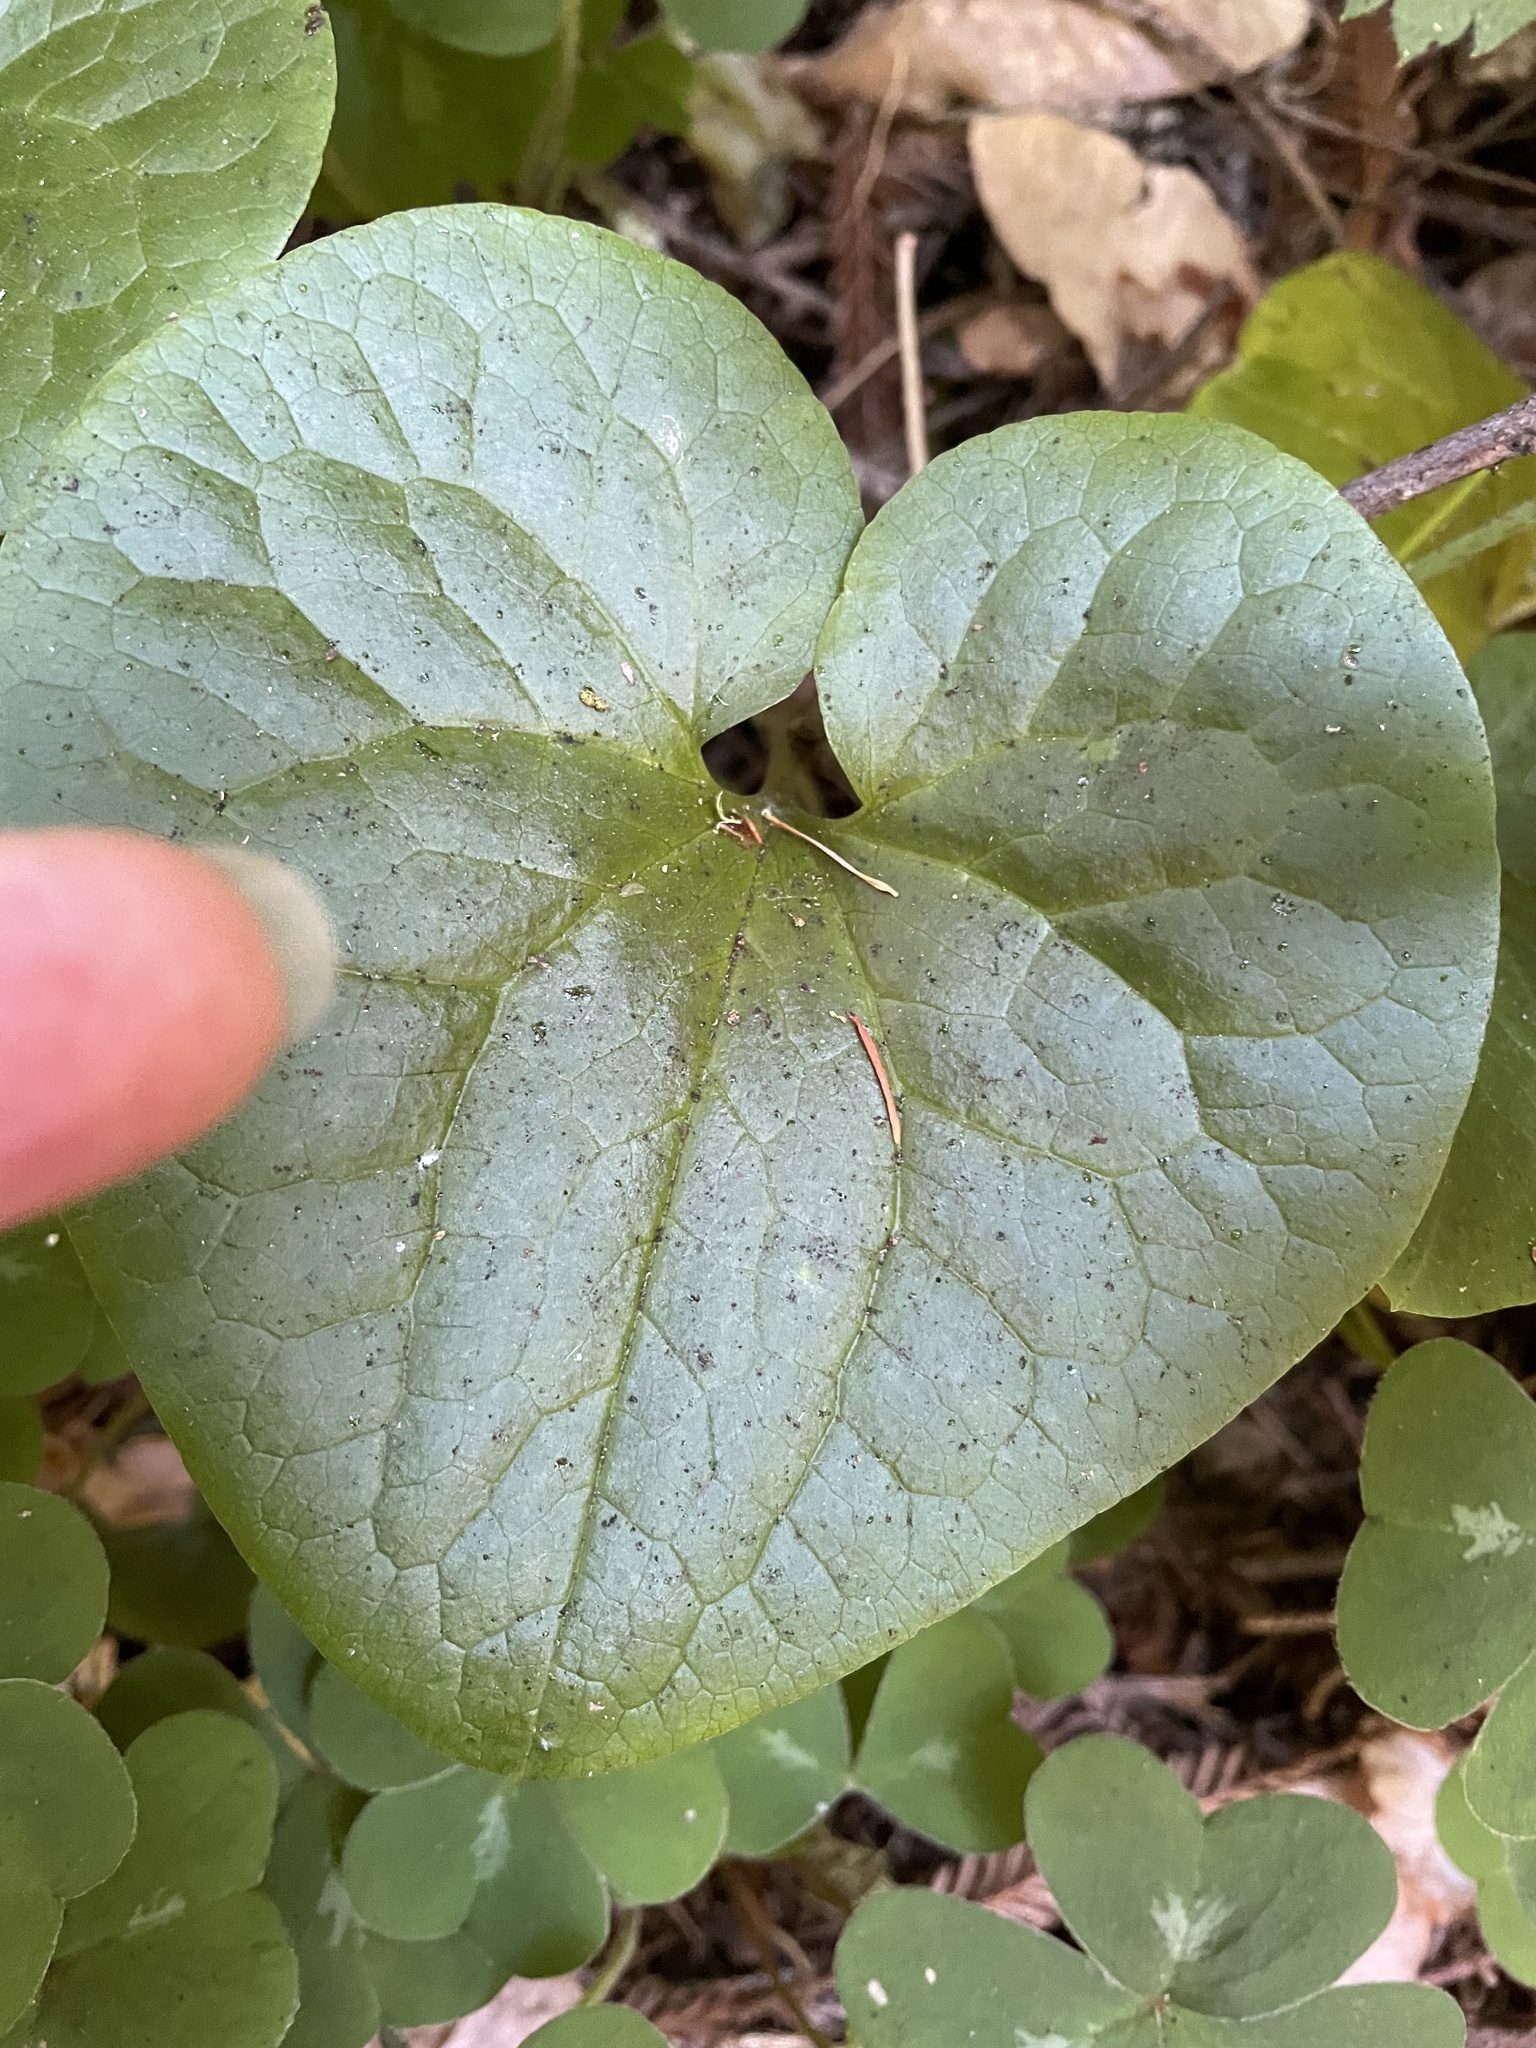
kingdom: Plantae
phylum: Tracheophyta
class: Magnoliopsida
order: Piperales
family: Aristolochiaceae
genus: Asarum
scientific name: Asarum caudatum
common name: Wild ginger
